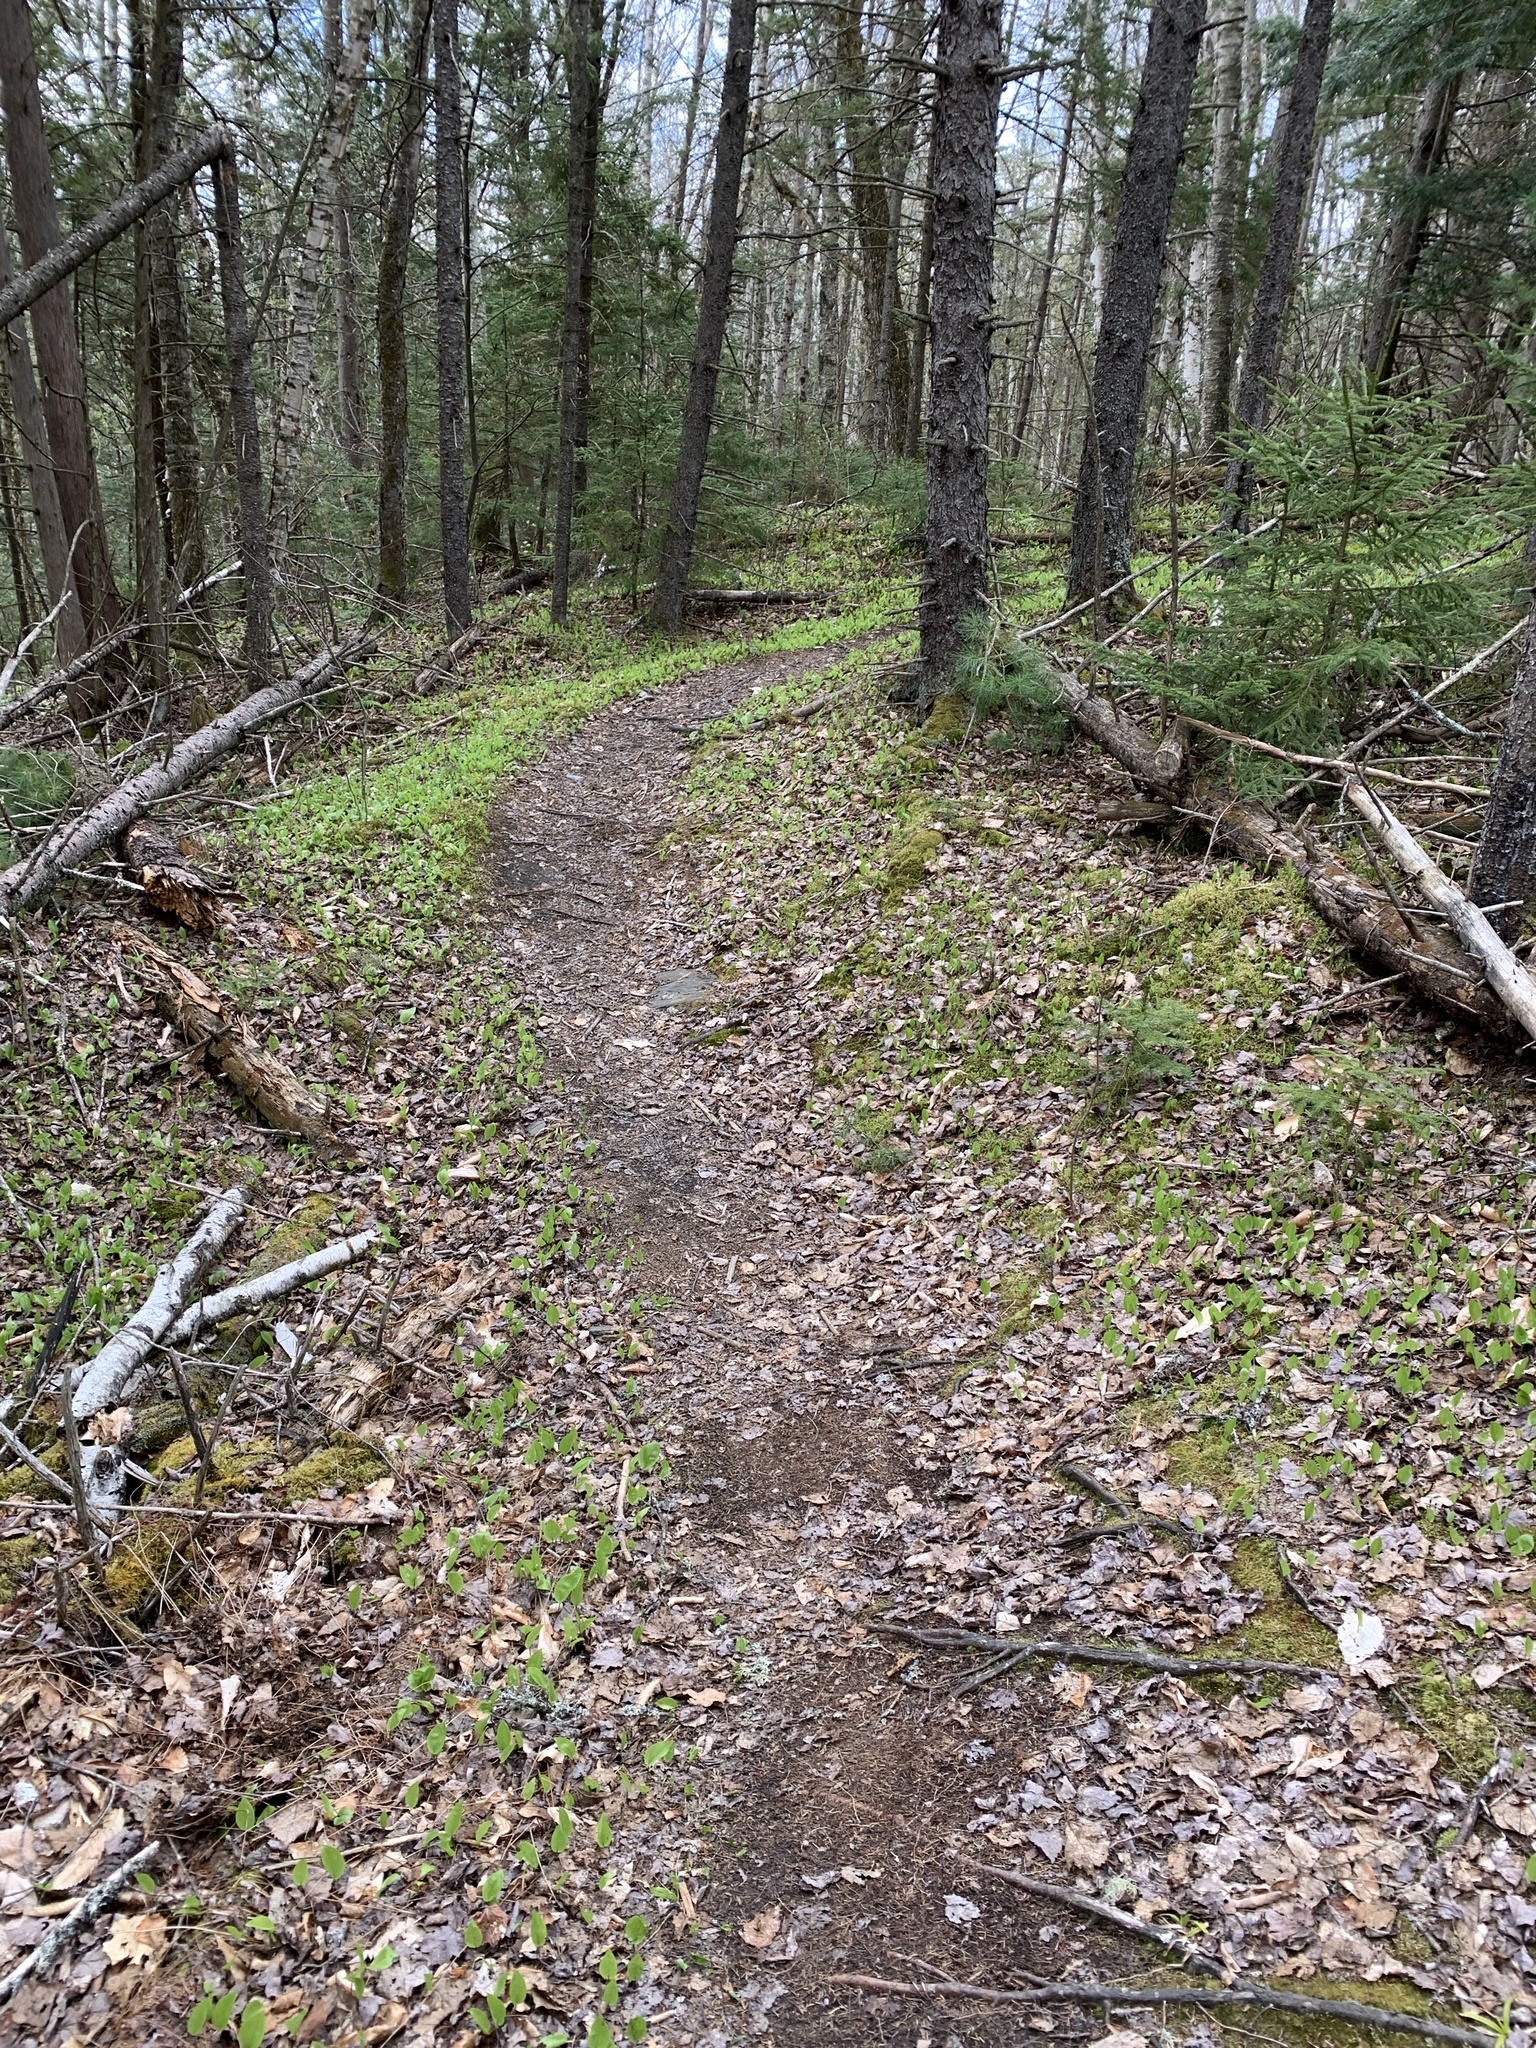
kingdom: Plantae
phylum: Tracheophyta
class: Liliopsida
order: Asparagales
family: Asparagaceae
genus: Maianthemum
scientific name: Maianthemum canadense
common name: False lily-of-the-valley
